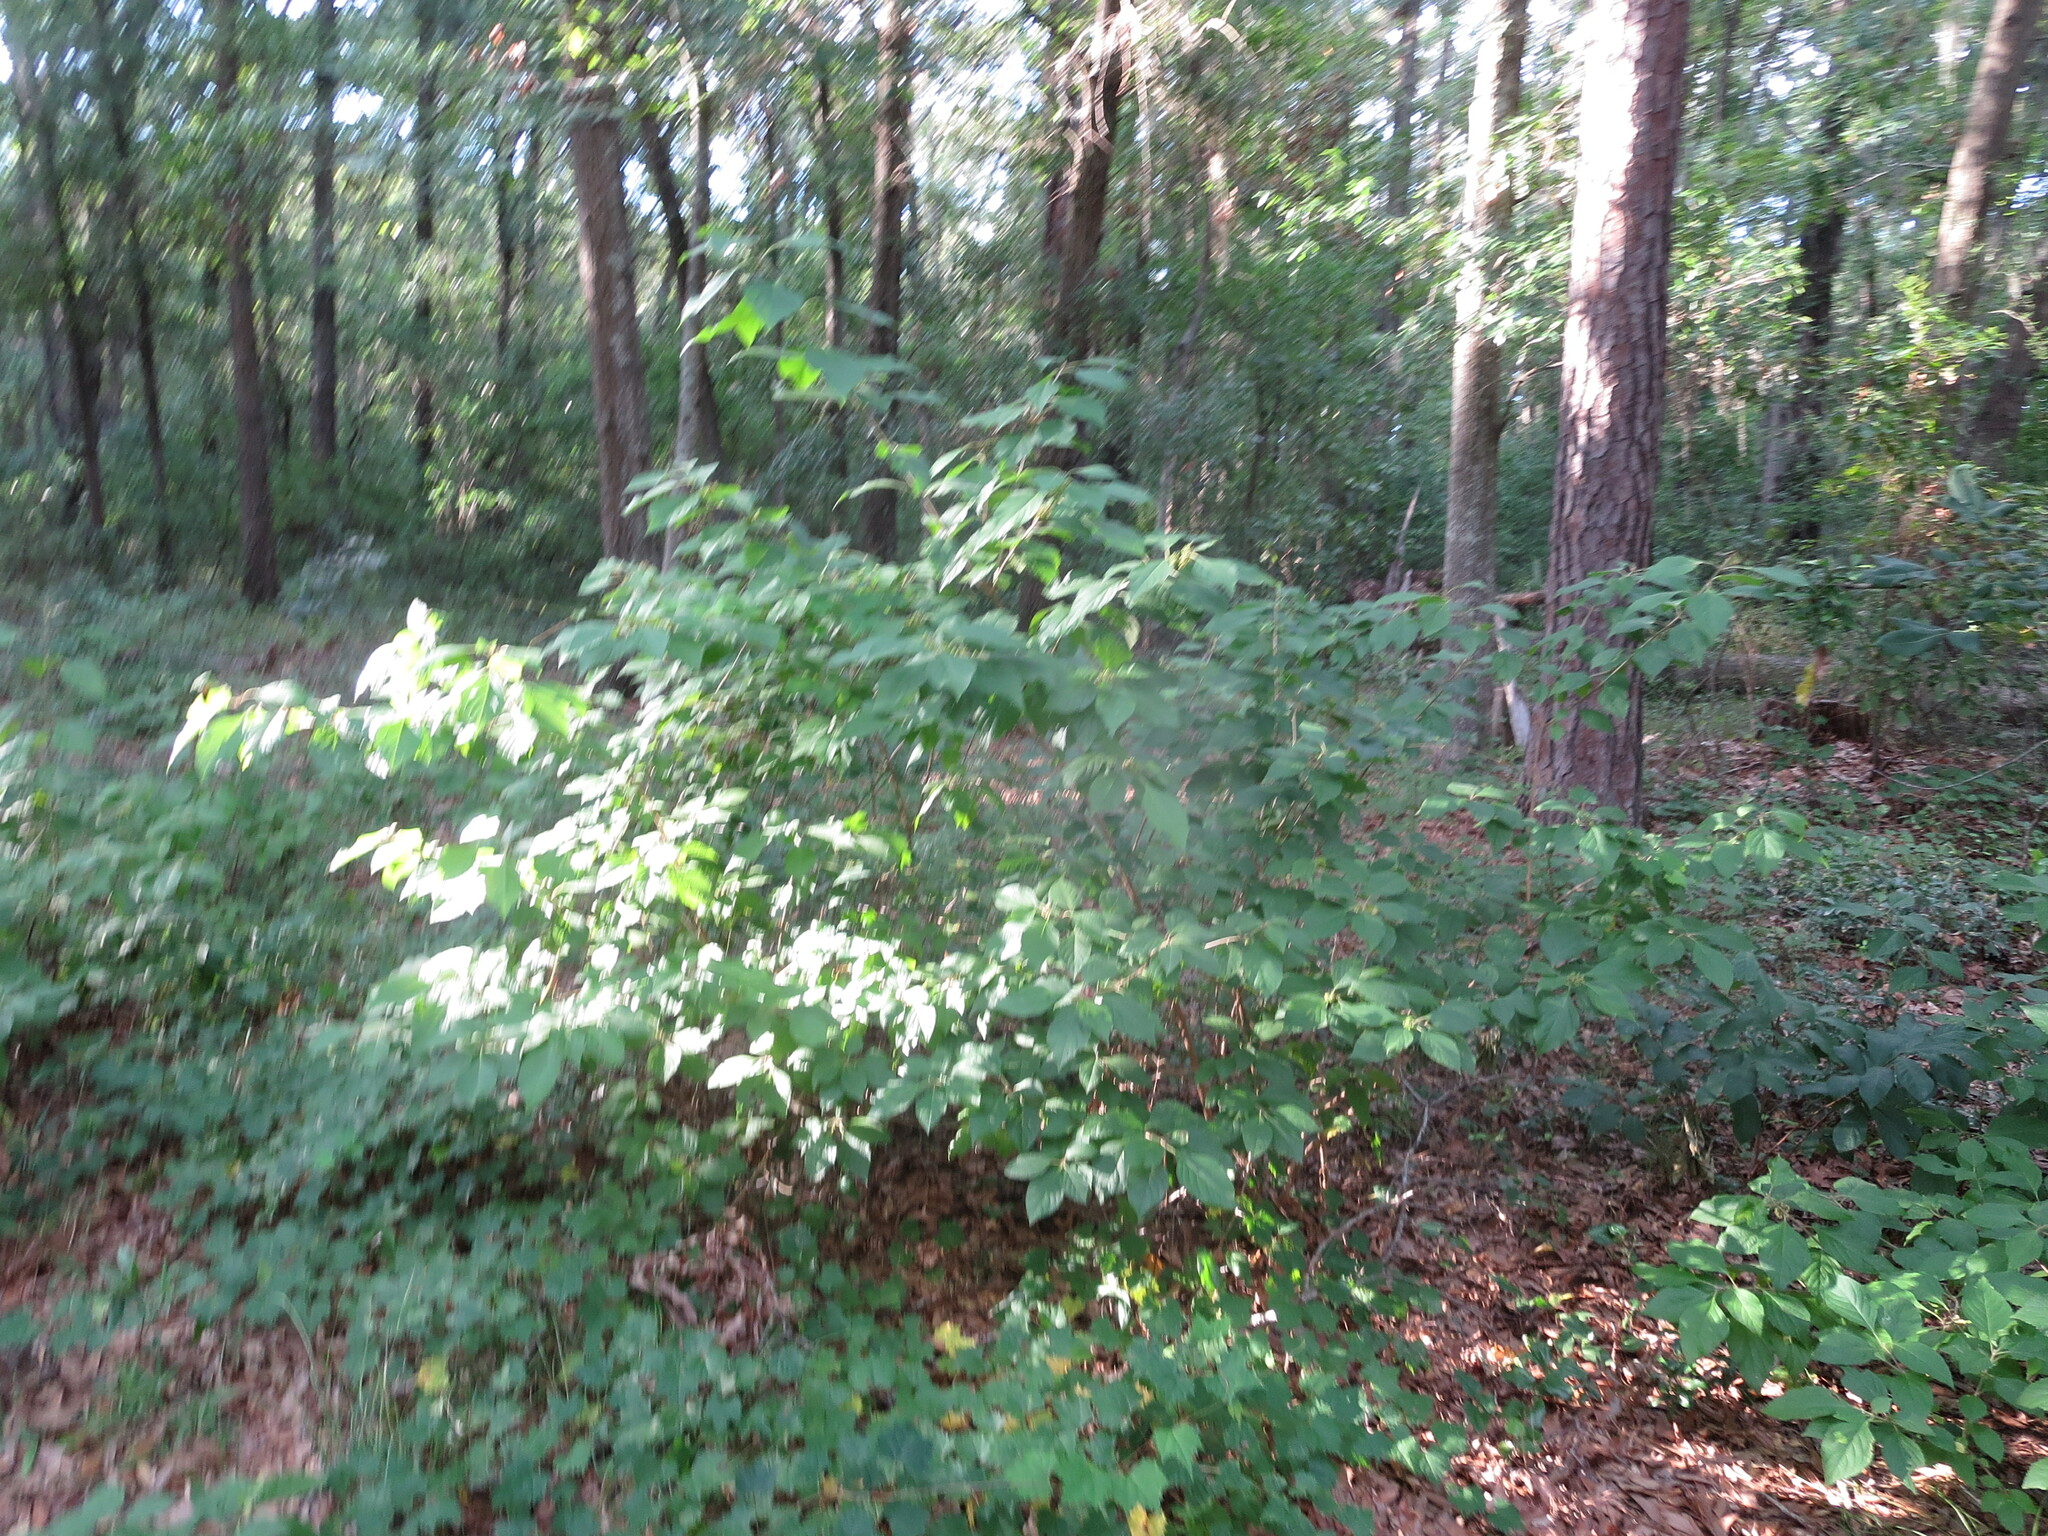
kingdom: Plantae
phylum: Tracheophyta
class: Magnoliopsida
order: Lamiales
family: Lamiaceae
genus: Callicarpa
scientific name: Callicarpa americana
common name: American beautyberry
